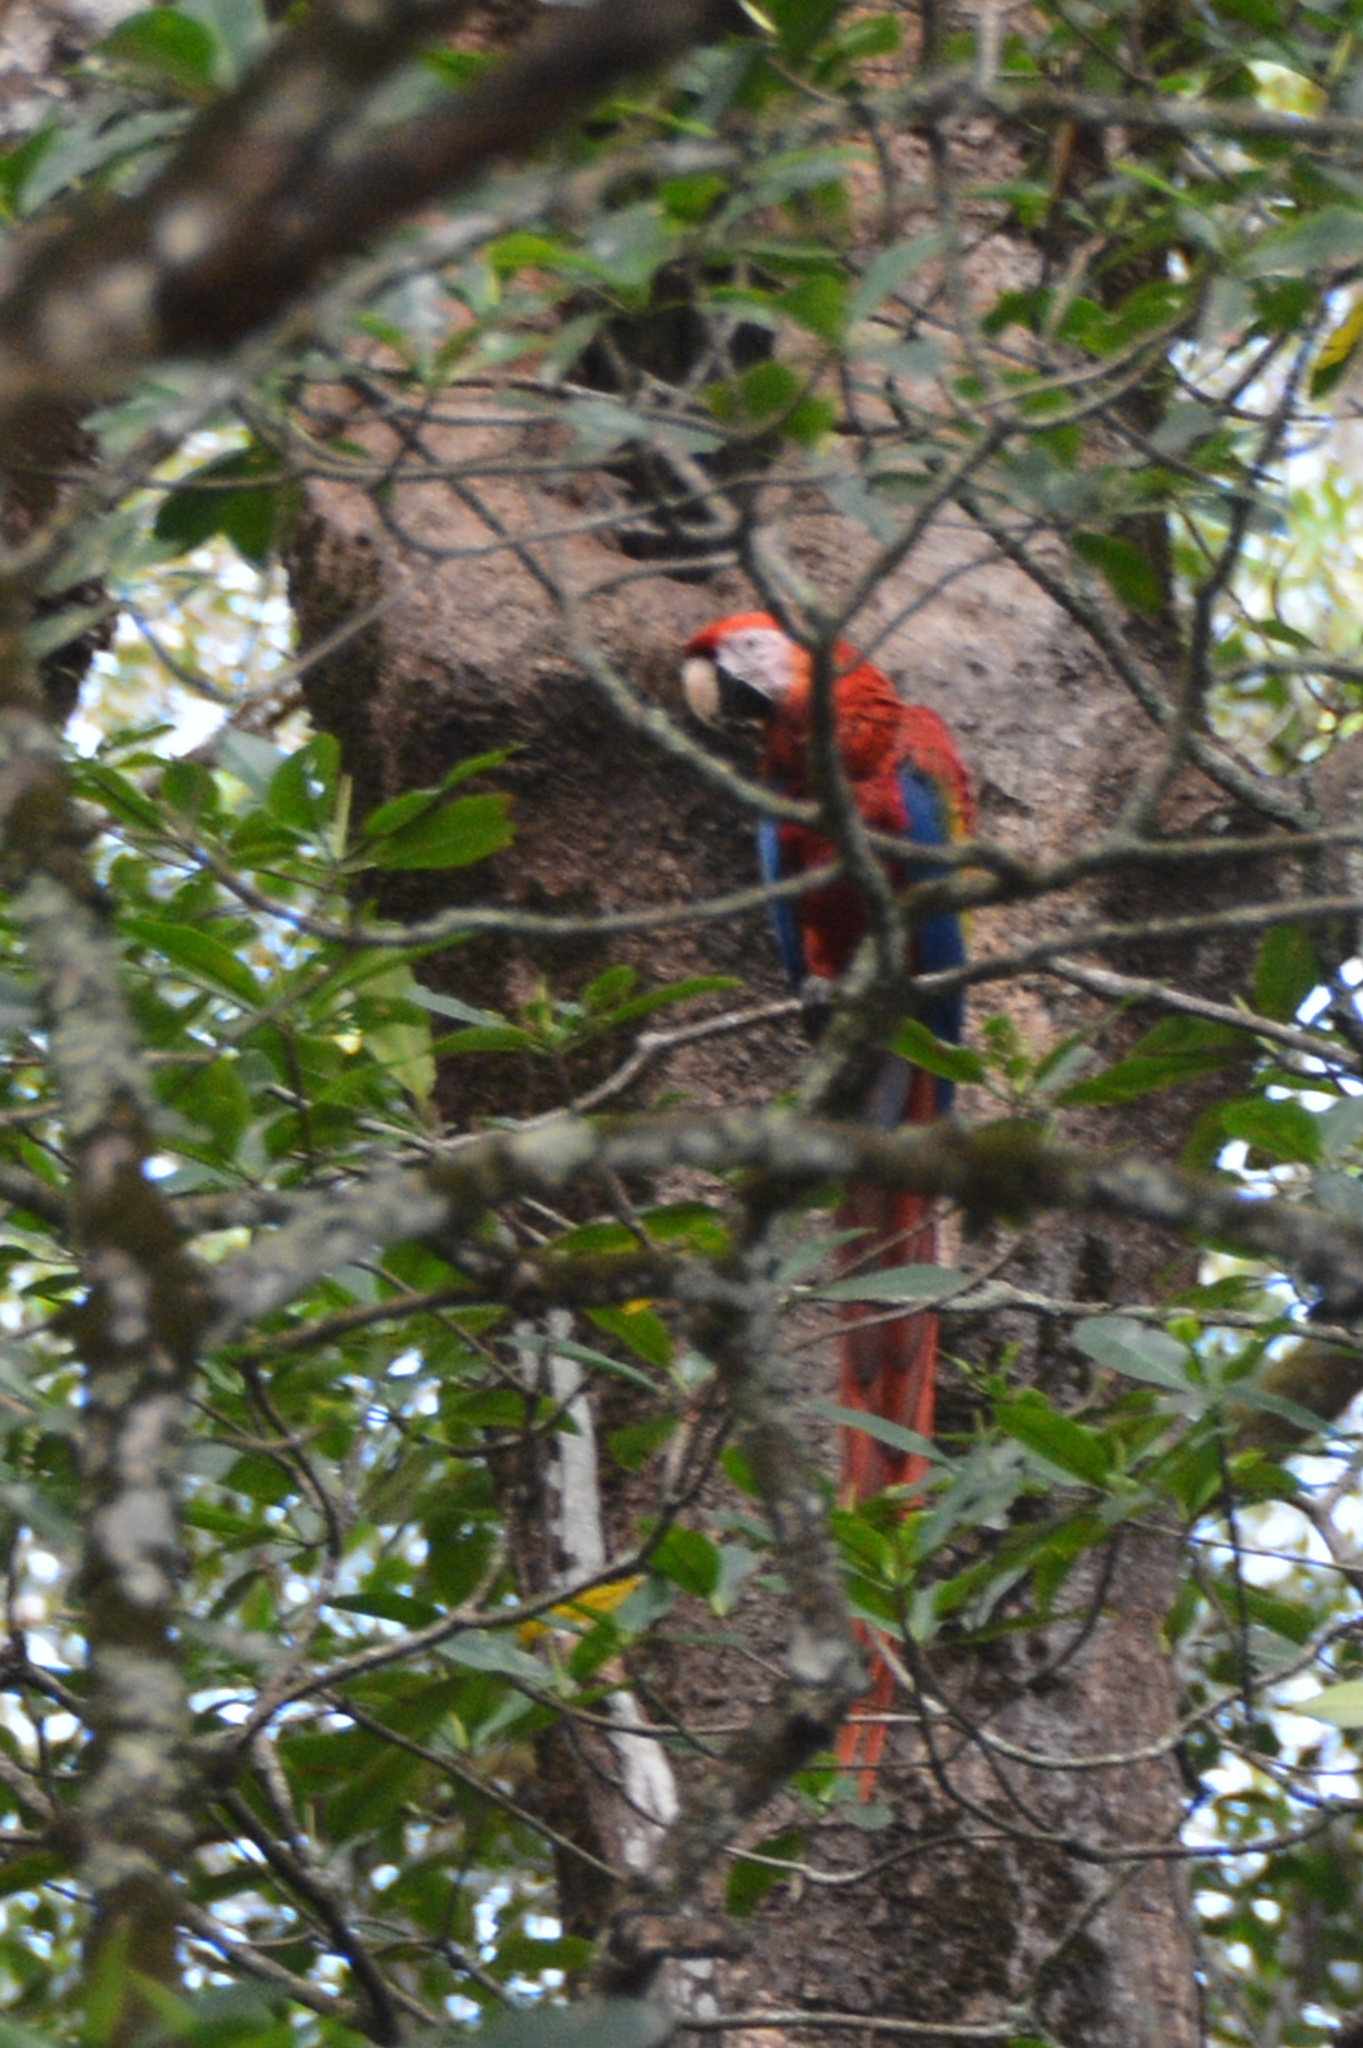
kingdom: Animalia
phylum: Chordata
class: Aves
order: Psittaciformes
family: Psittacidae
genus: Ara
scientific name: Ara macao
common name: Scarlet macaw
